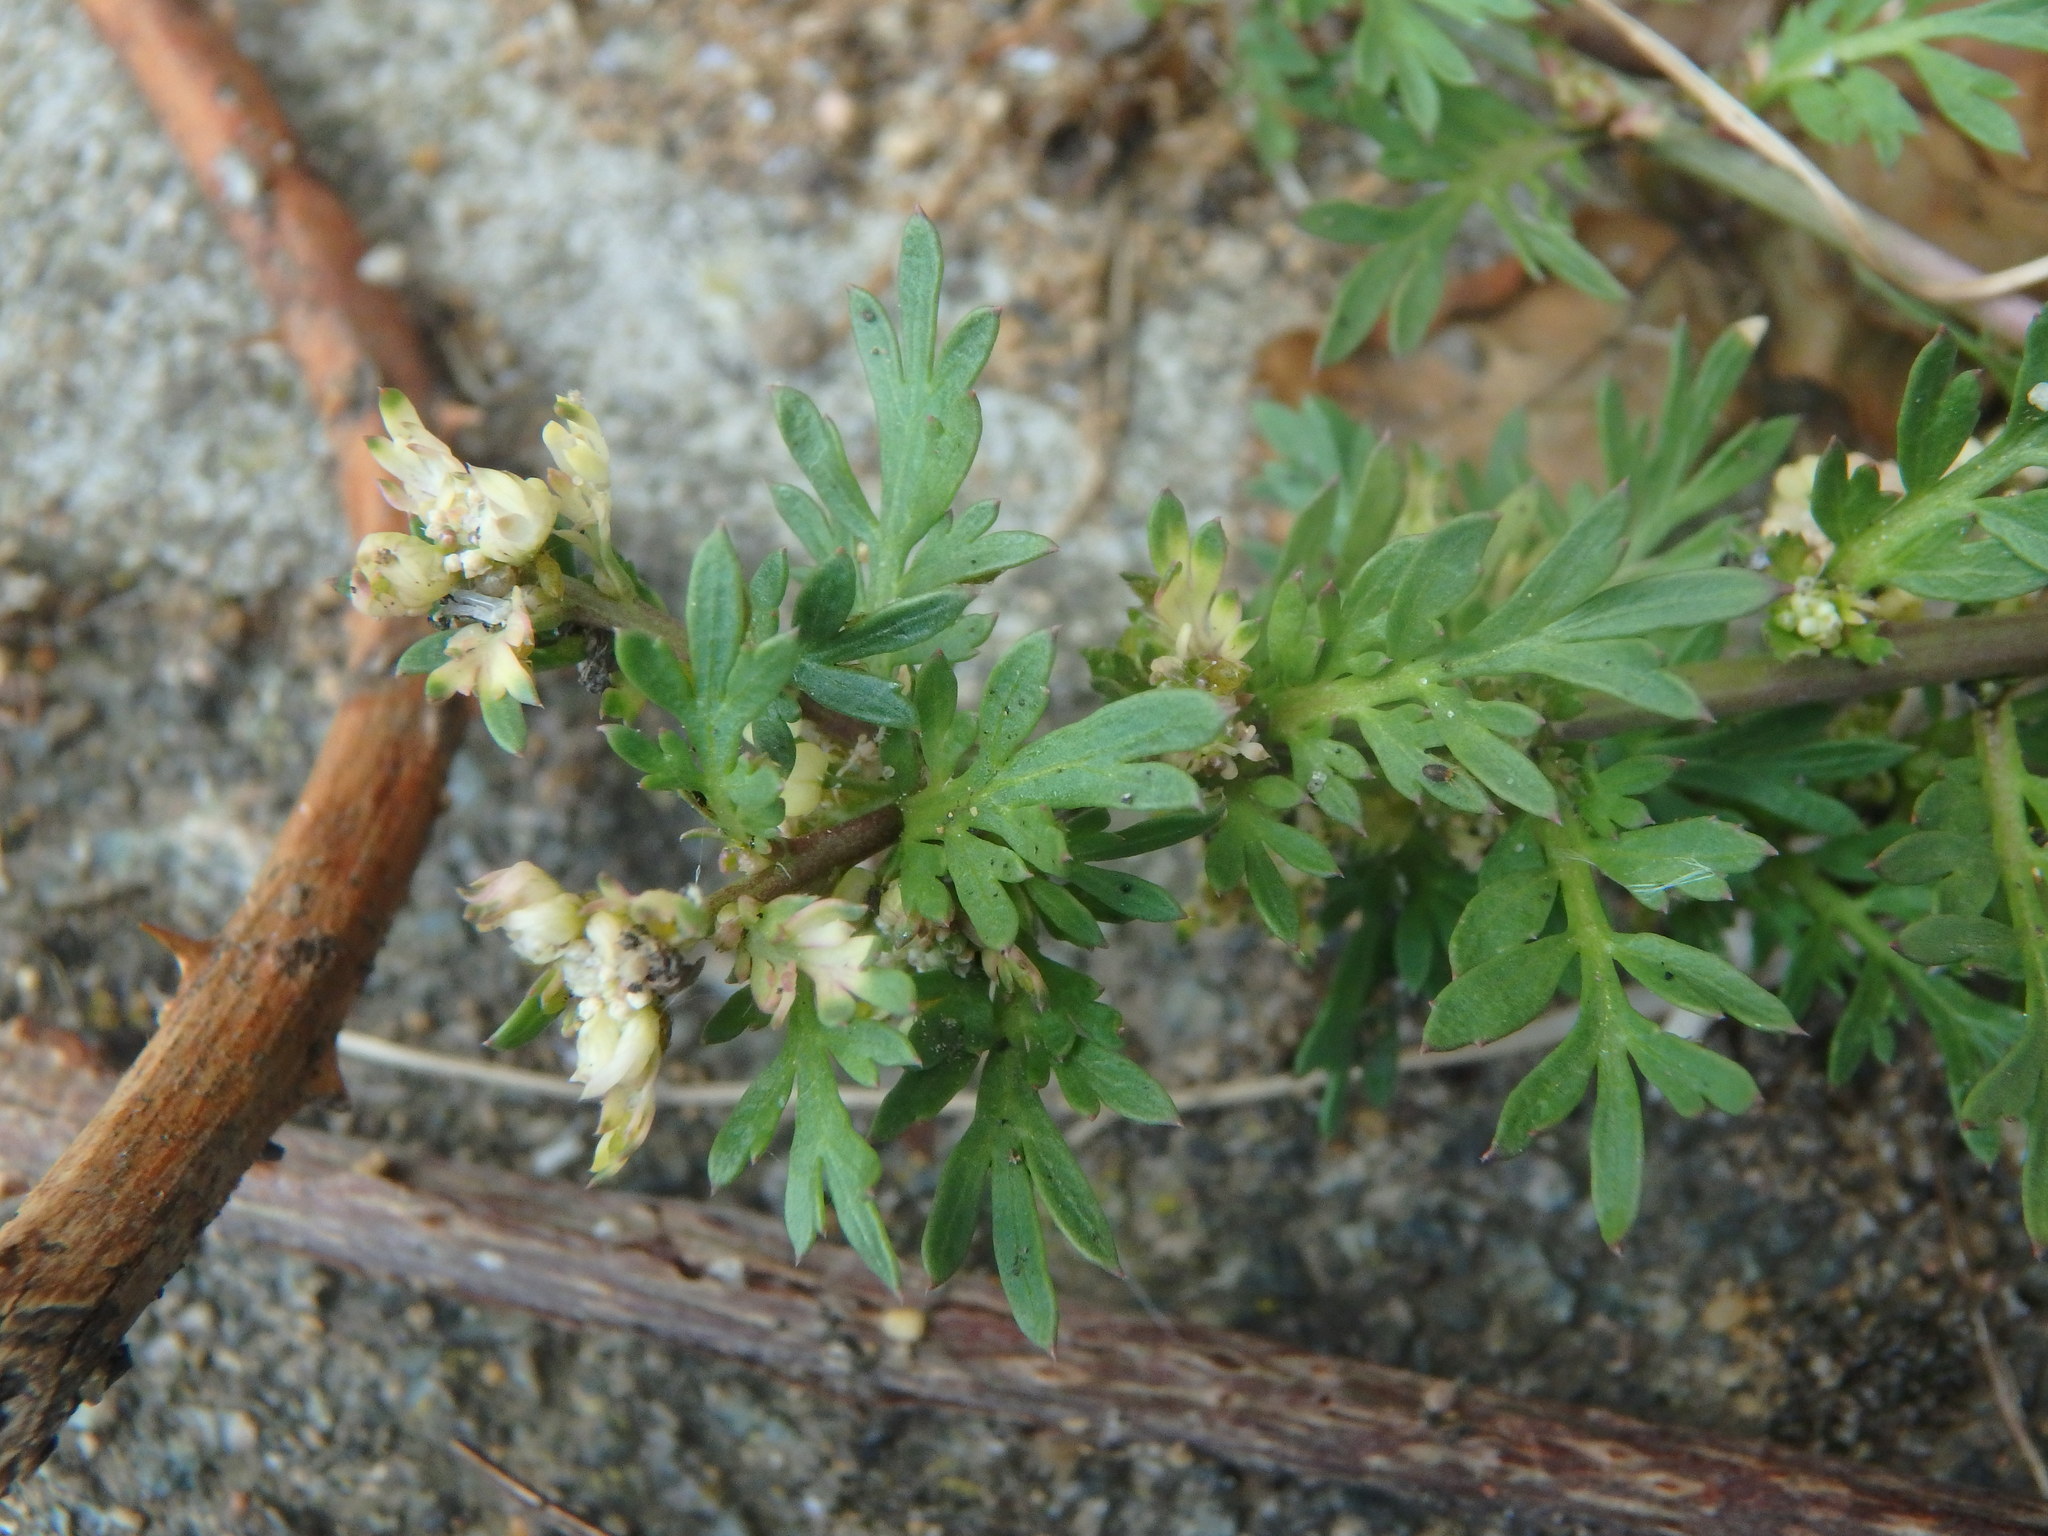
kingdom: Plantae
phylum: Tracheophyta
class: Magnoliopsida
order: Brassicales
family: Brassicaceae
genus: Lepidium
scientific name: Lepidium didymum
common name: Lesser swinecress
